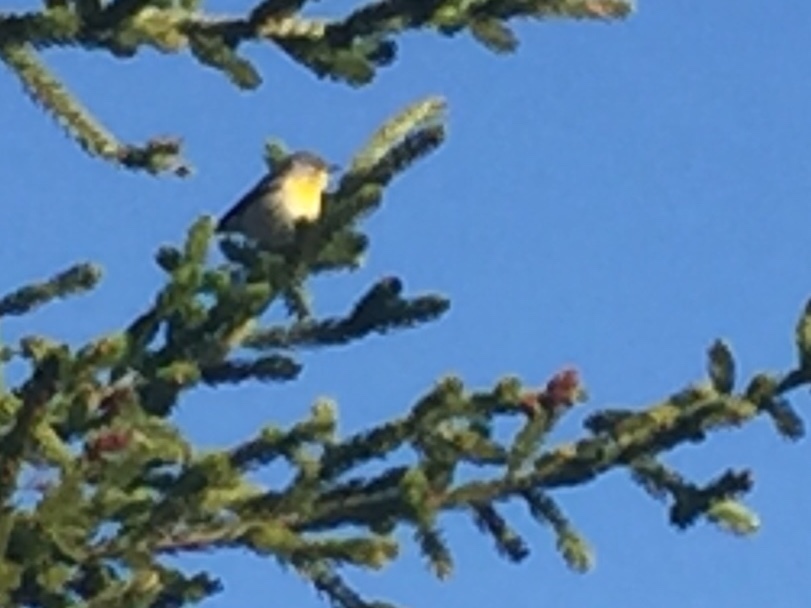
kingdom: Animalia
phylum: Chordata
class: Aves
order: Passeriformes
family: Parulidae
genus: Setophaga
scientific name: Setophaga americana
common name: Northern parula
